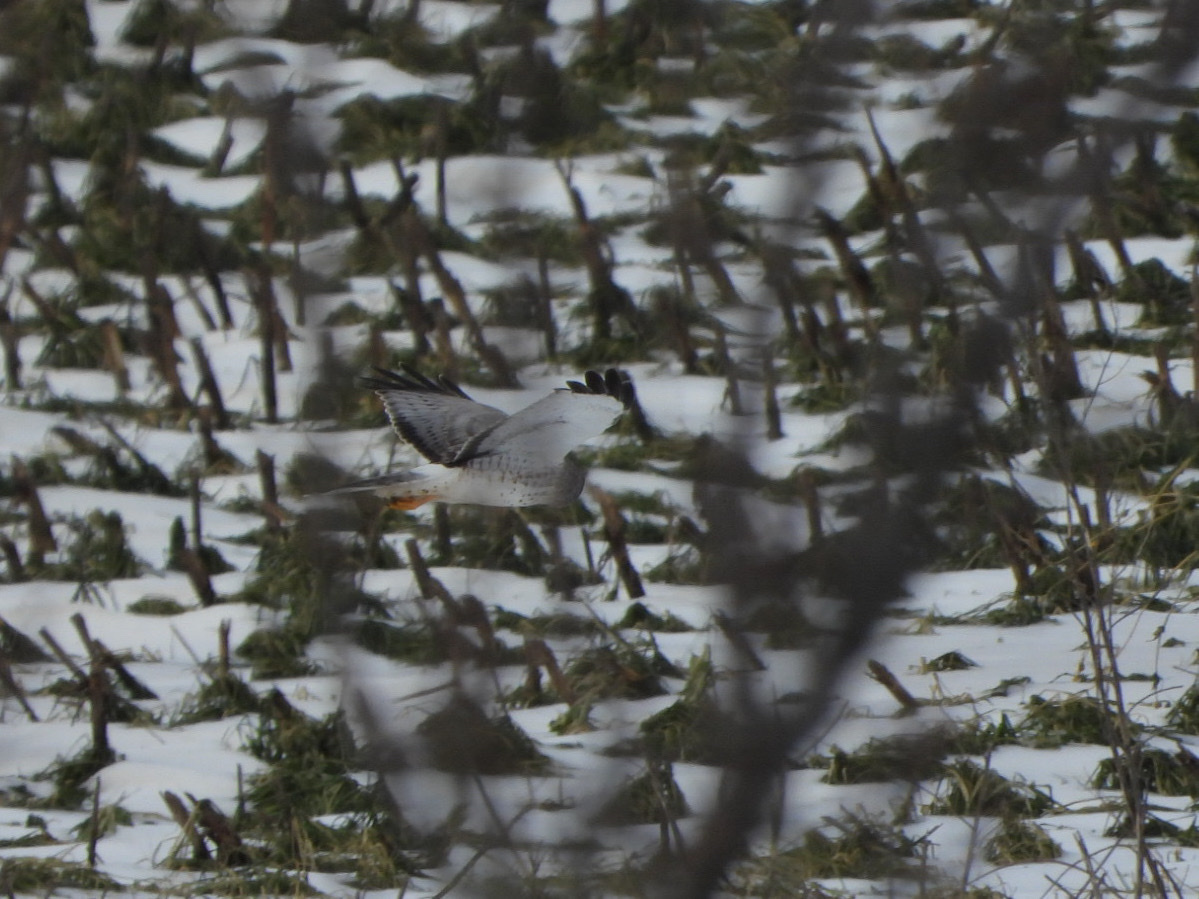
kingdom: Animalia
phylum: Chordata
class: Aves
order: Accipitriformes
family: Accipitridae
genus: Circus
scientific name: Circus cyaneus
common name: Hen harrier
